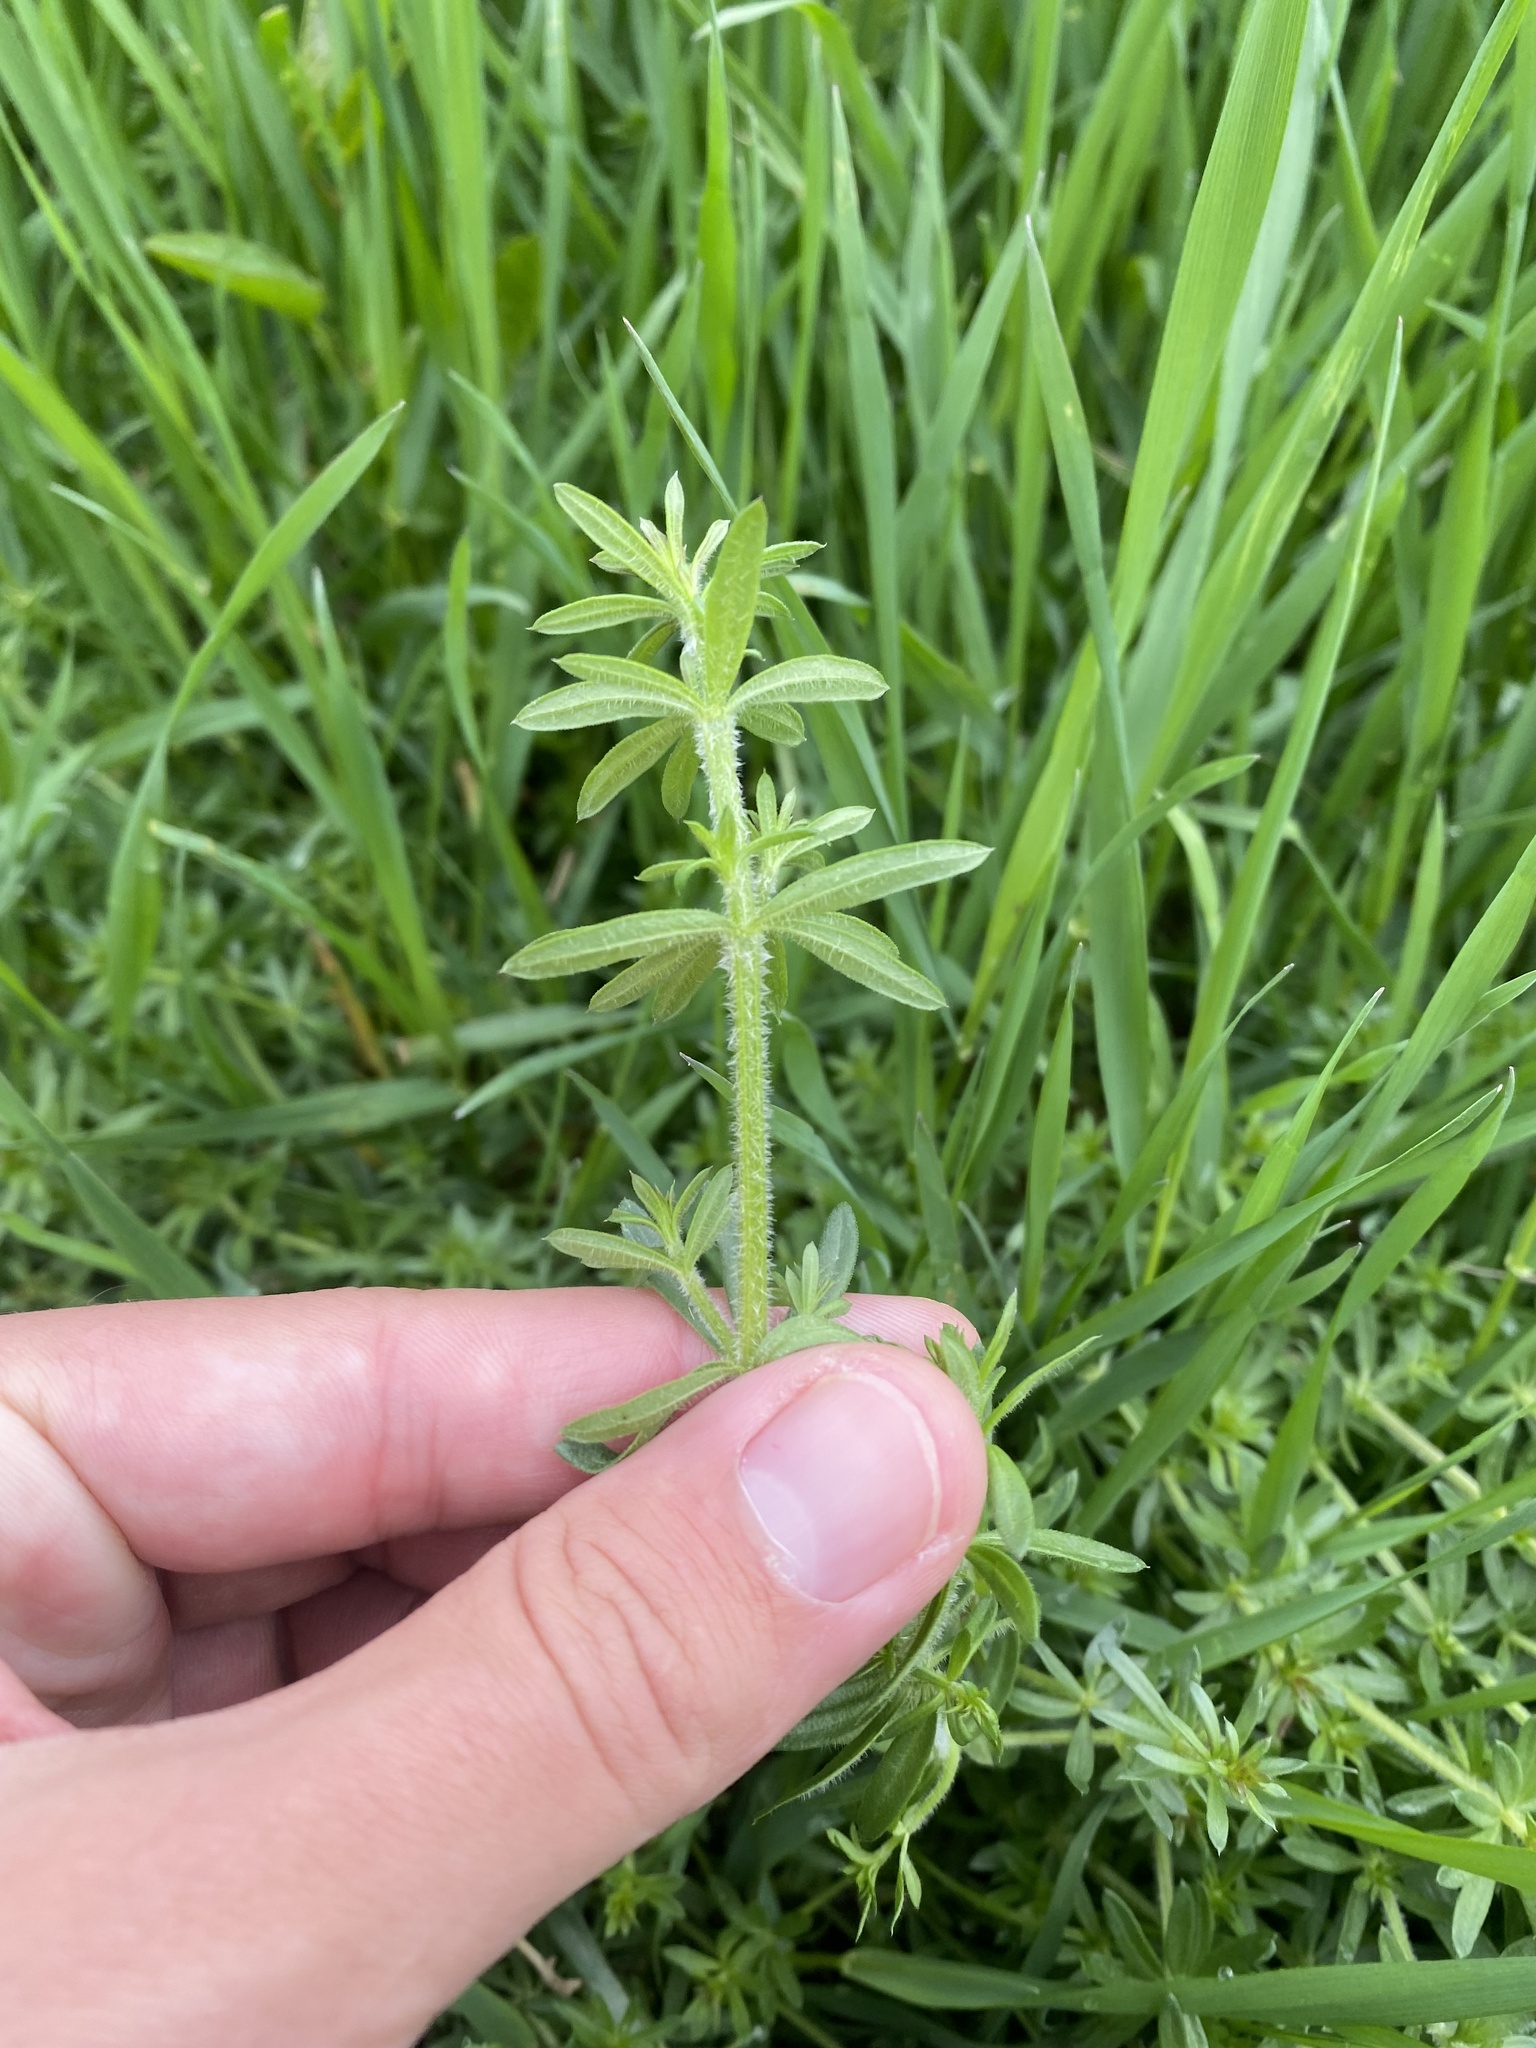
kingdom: Plantae
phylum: Tracheophyta
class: Magnoliopsida
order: Gentianales
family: Rubiaceae
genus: Galium
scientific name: Galium humifusum
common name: Spreading bedstraw
